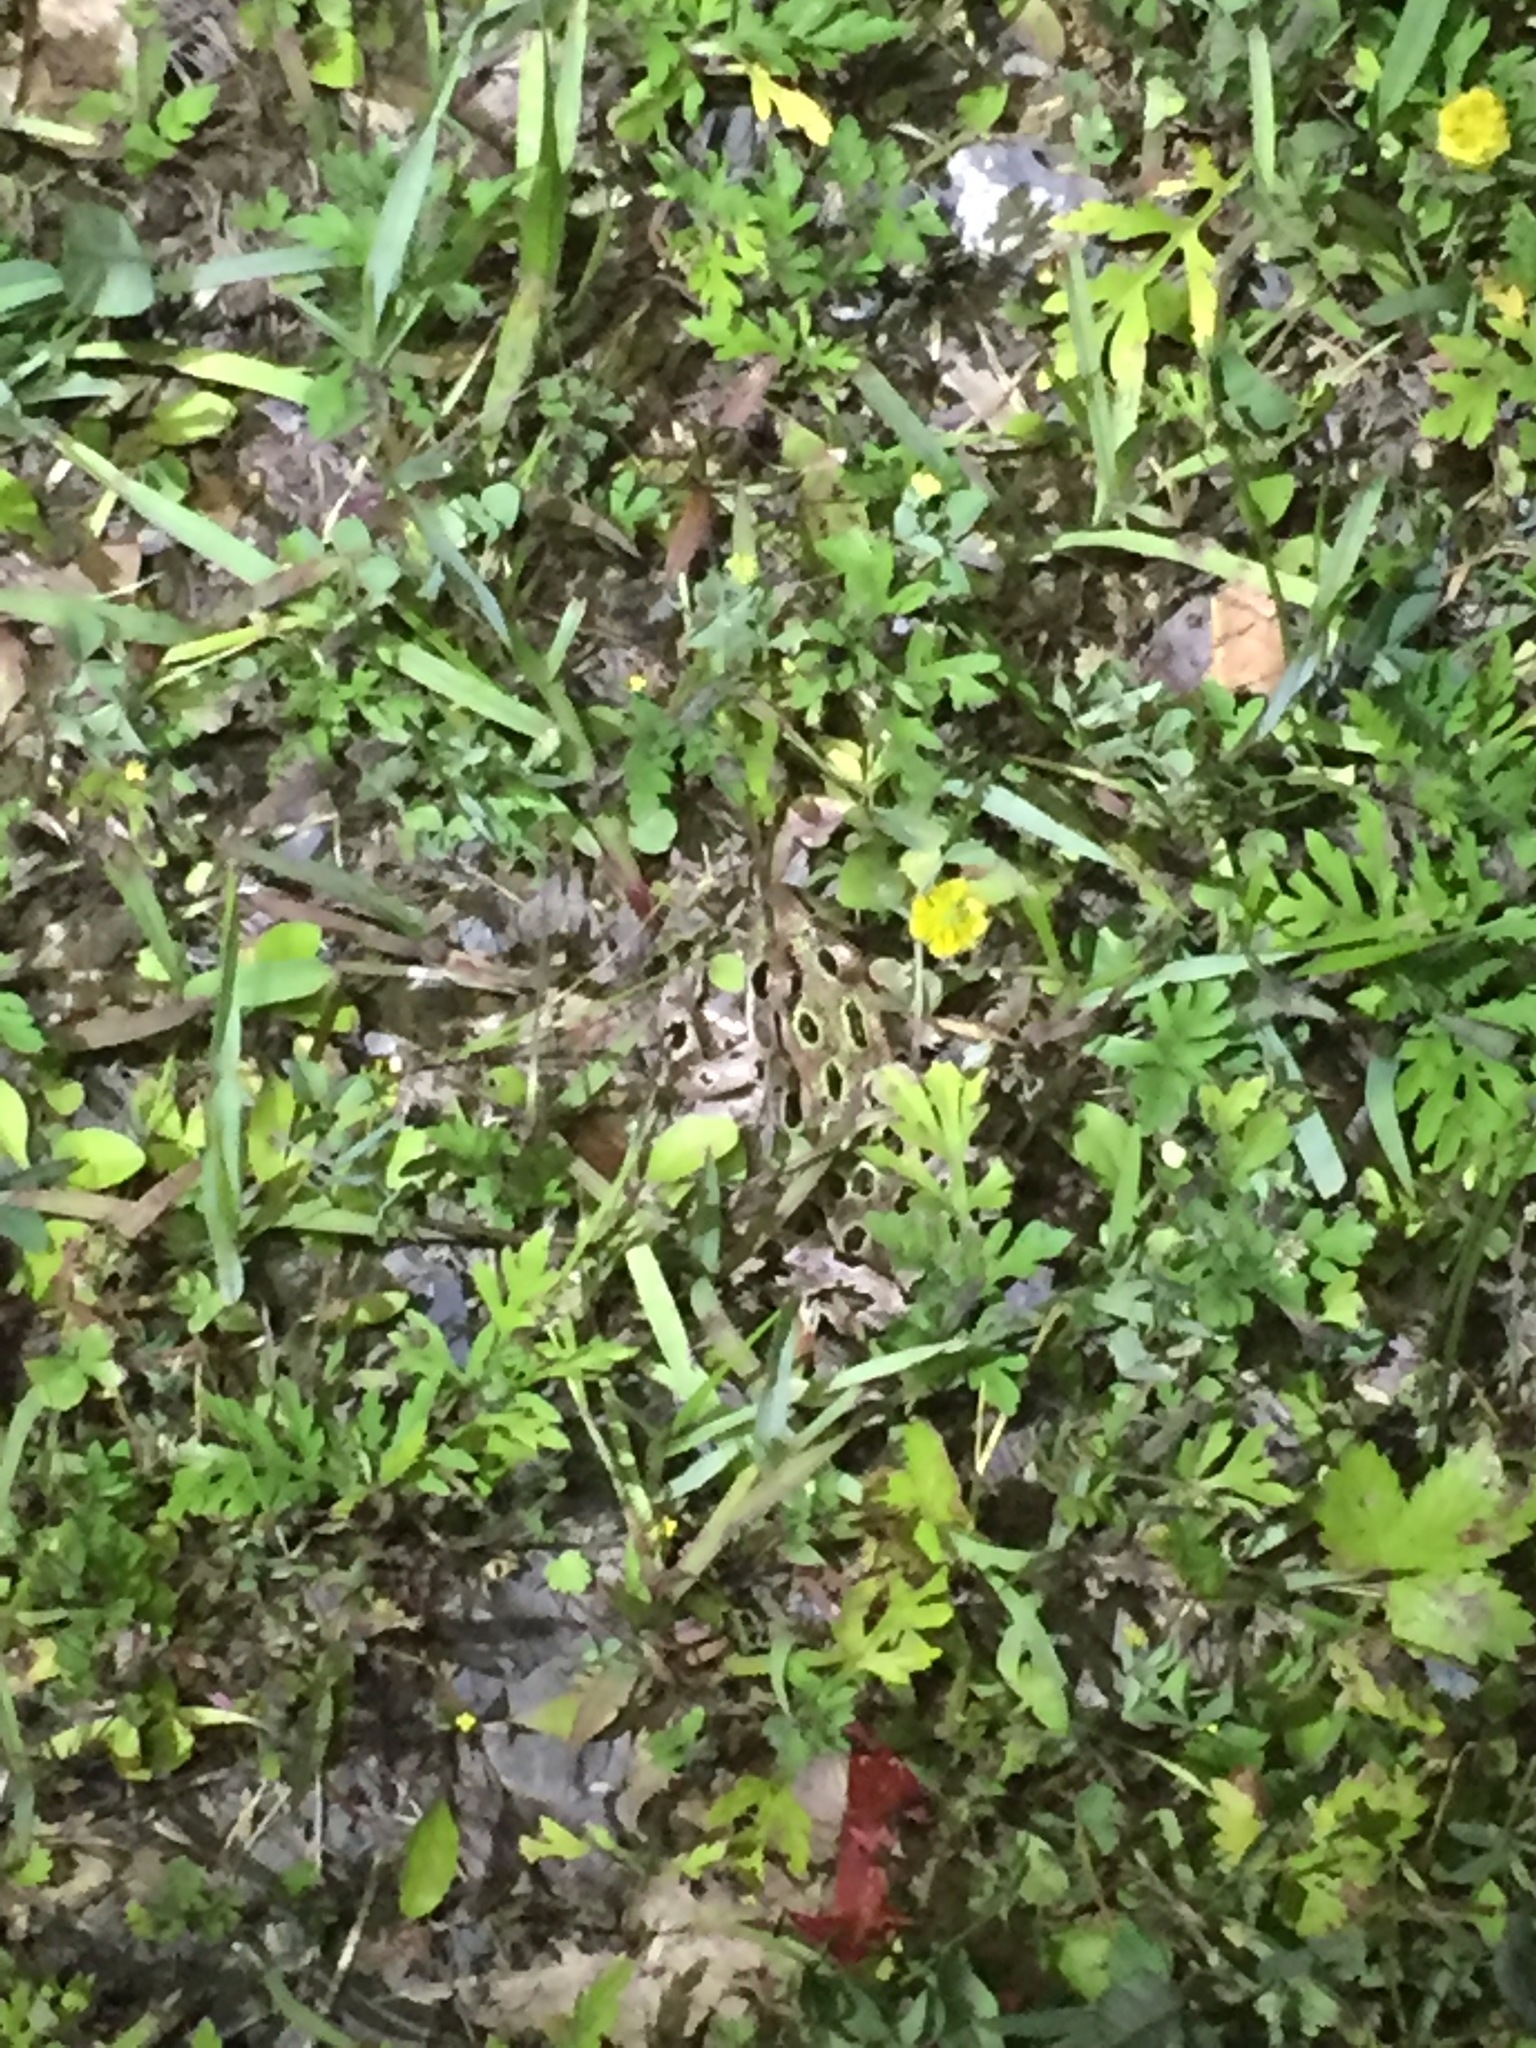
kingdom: Animalia
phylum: Chordata
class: Amphibia
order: Anura
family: Ranidae
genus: Lithobates
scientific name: Lithobates pipiens
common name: Northern leopard frog
